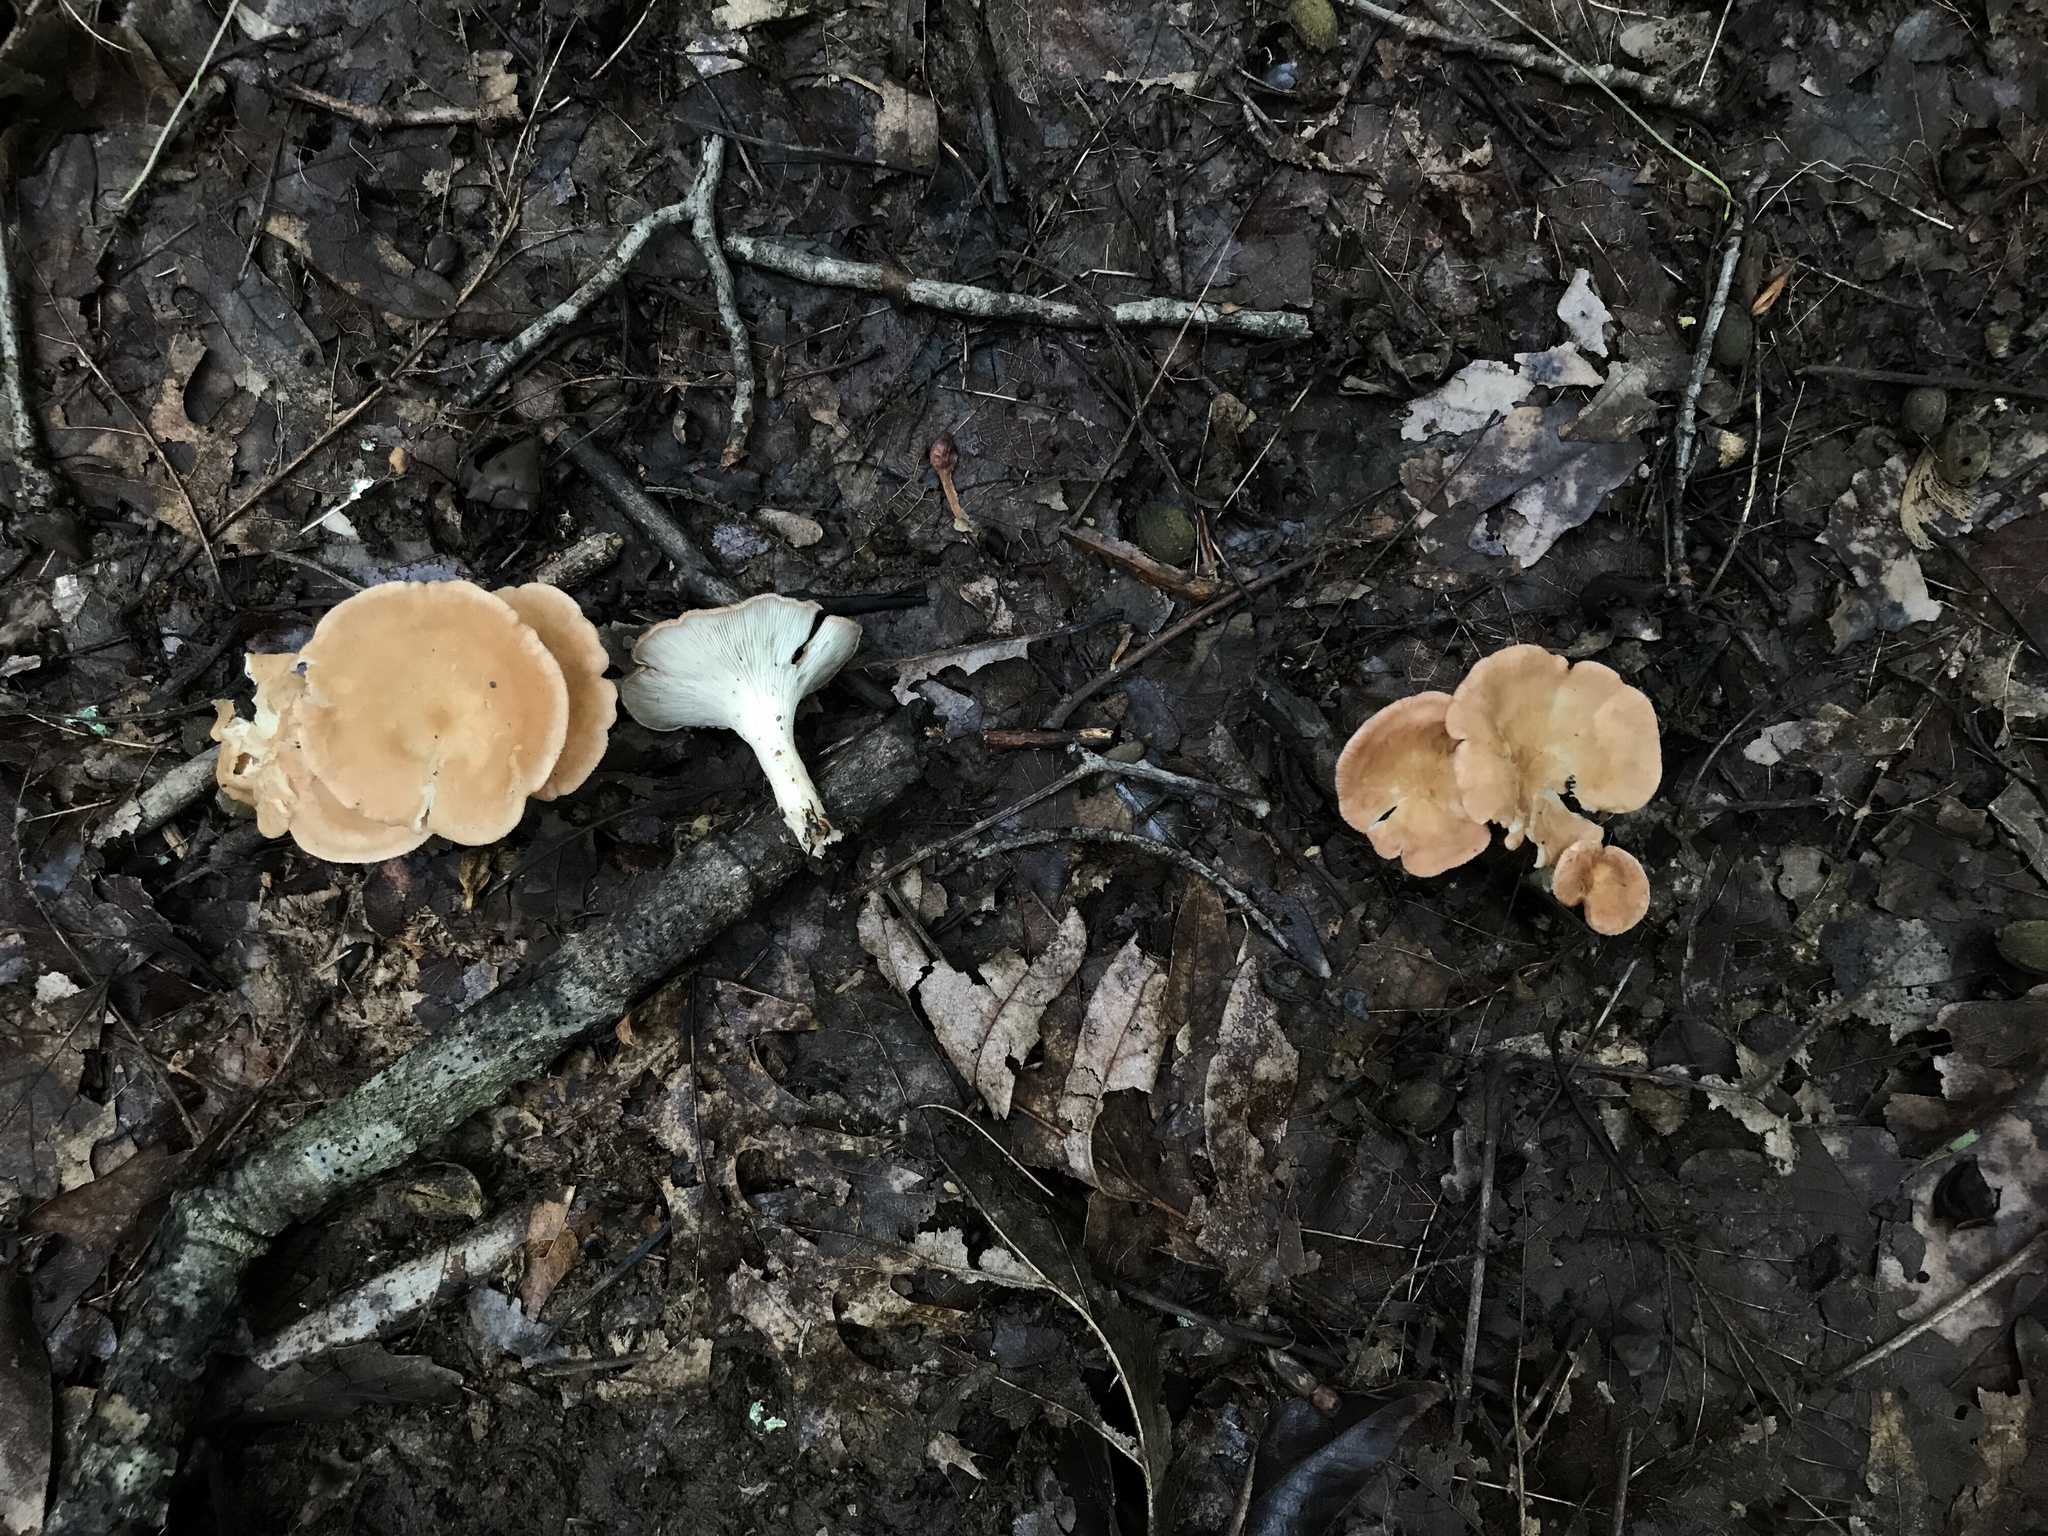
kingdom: Fungi
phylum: Basidiomycota
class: Agaricomycetes
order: Agaricales
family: Tricholomataceae
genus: Infundibulicybe
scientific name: Infundibulicybe gibba
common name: Common funnel
